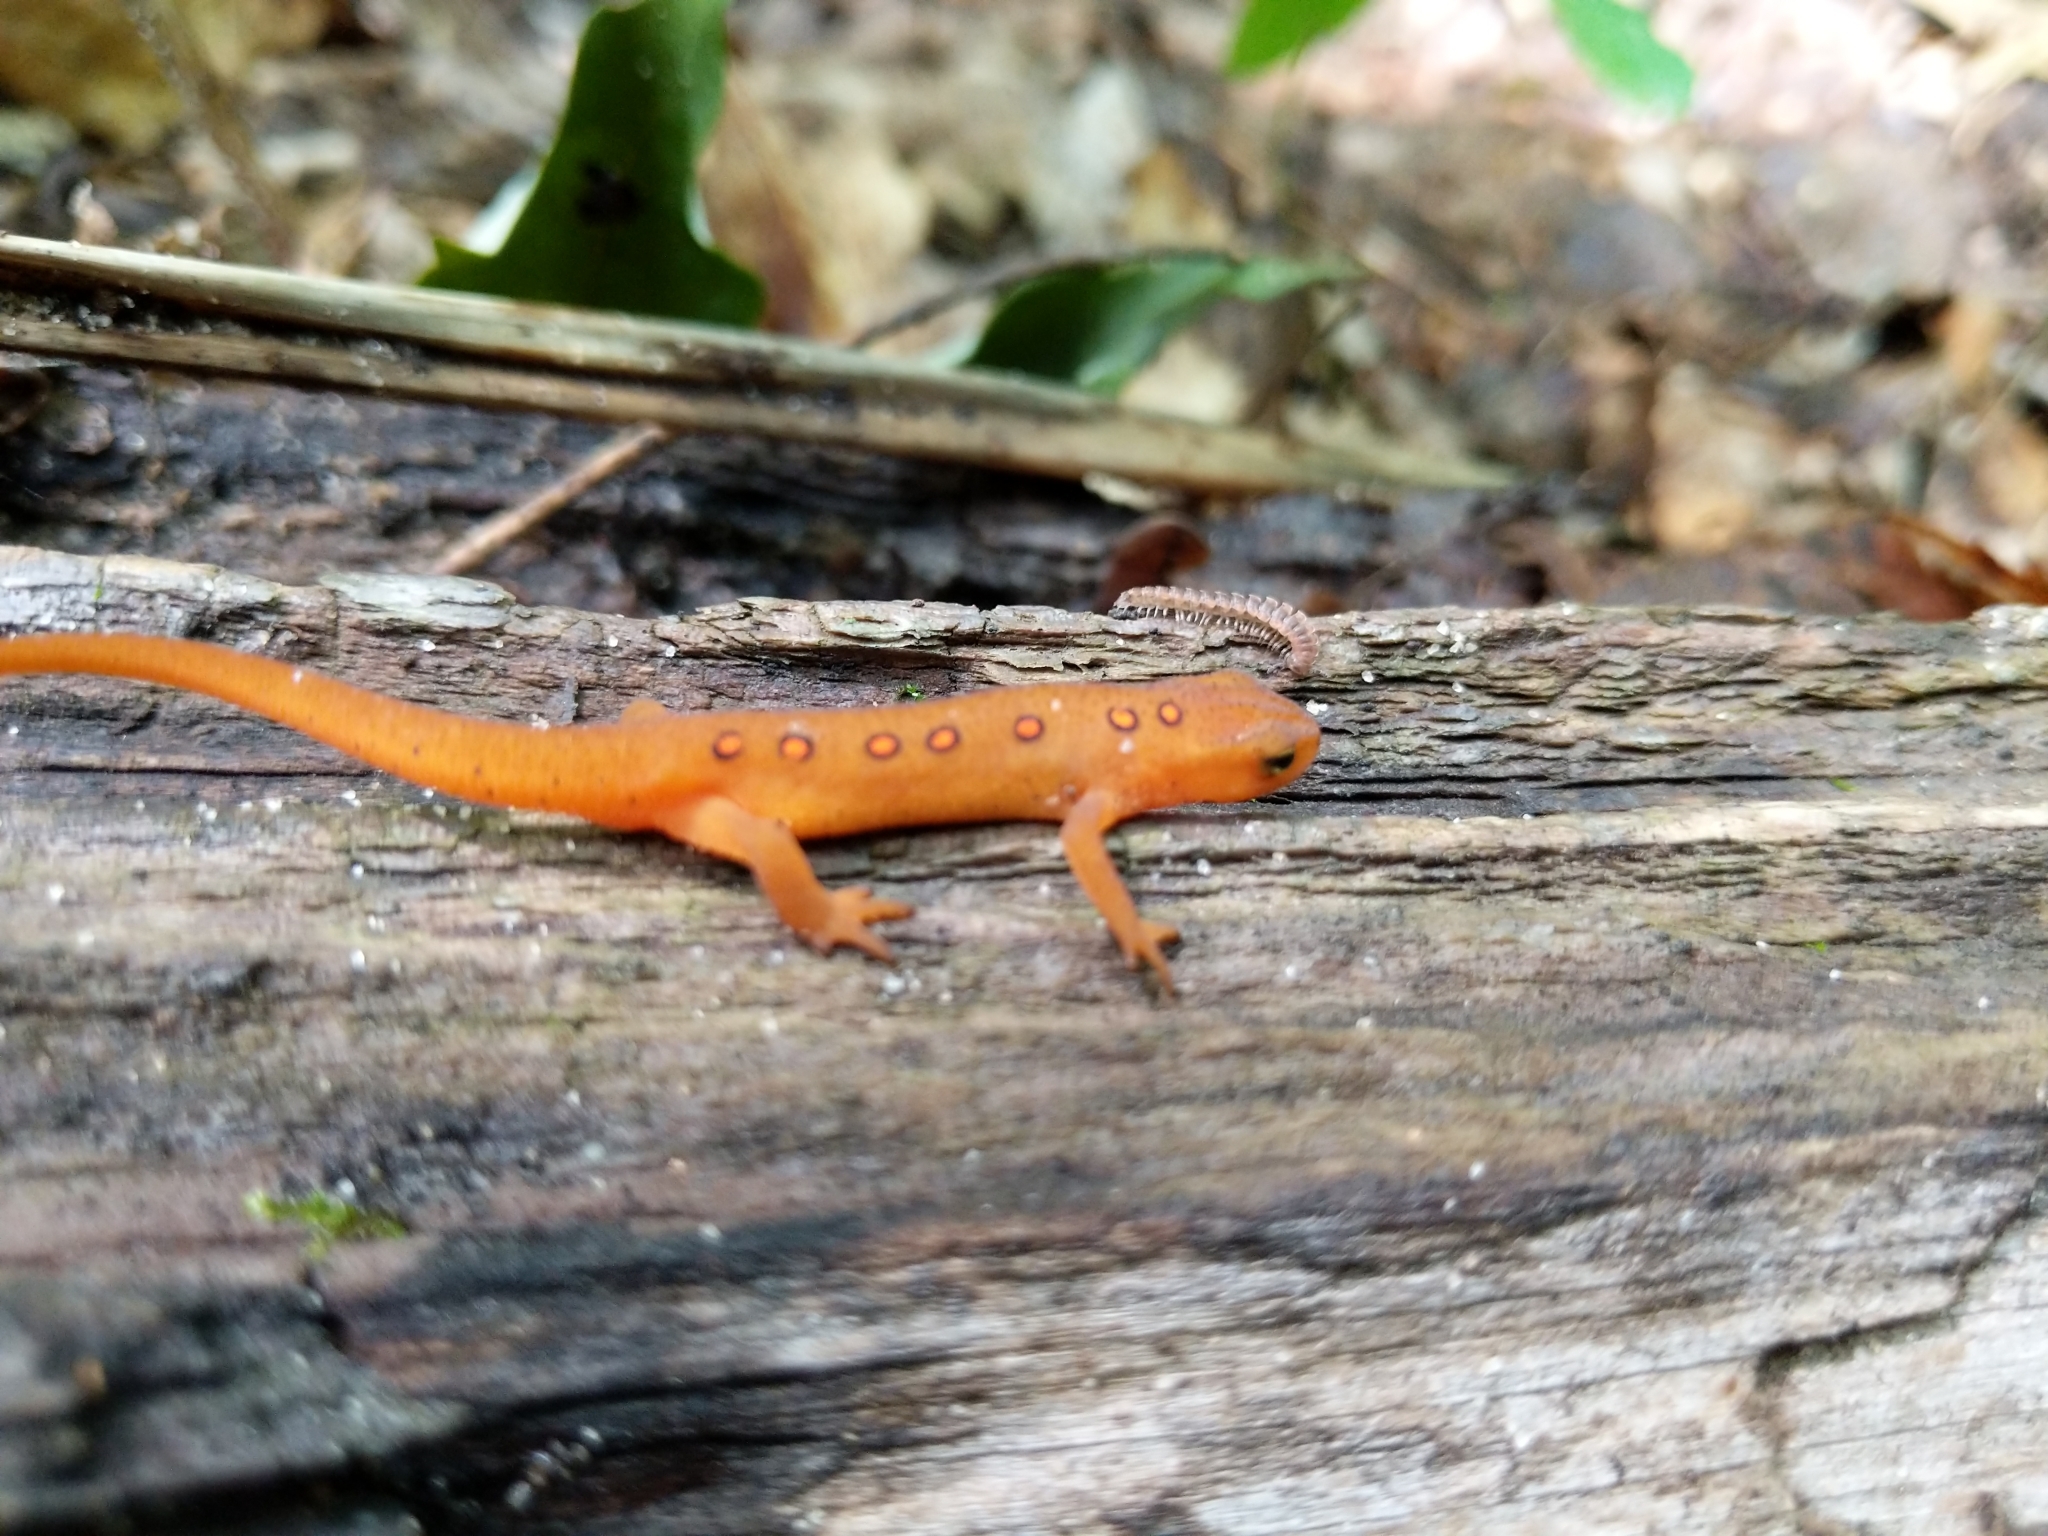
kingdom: Animalia
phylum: Chordata
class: Amphibia
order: Caudata
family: Salamandridae
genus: Notophthalmus
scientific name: Notophthalmus viridescens
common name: Eastern newt
